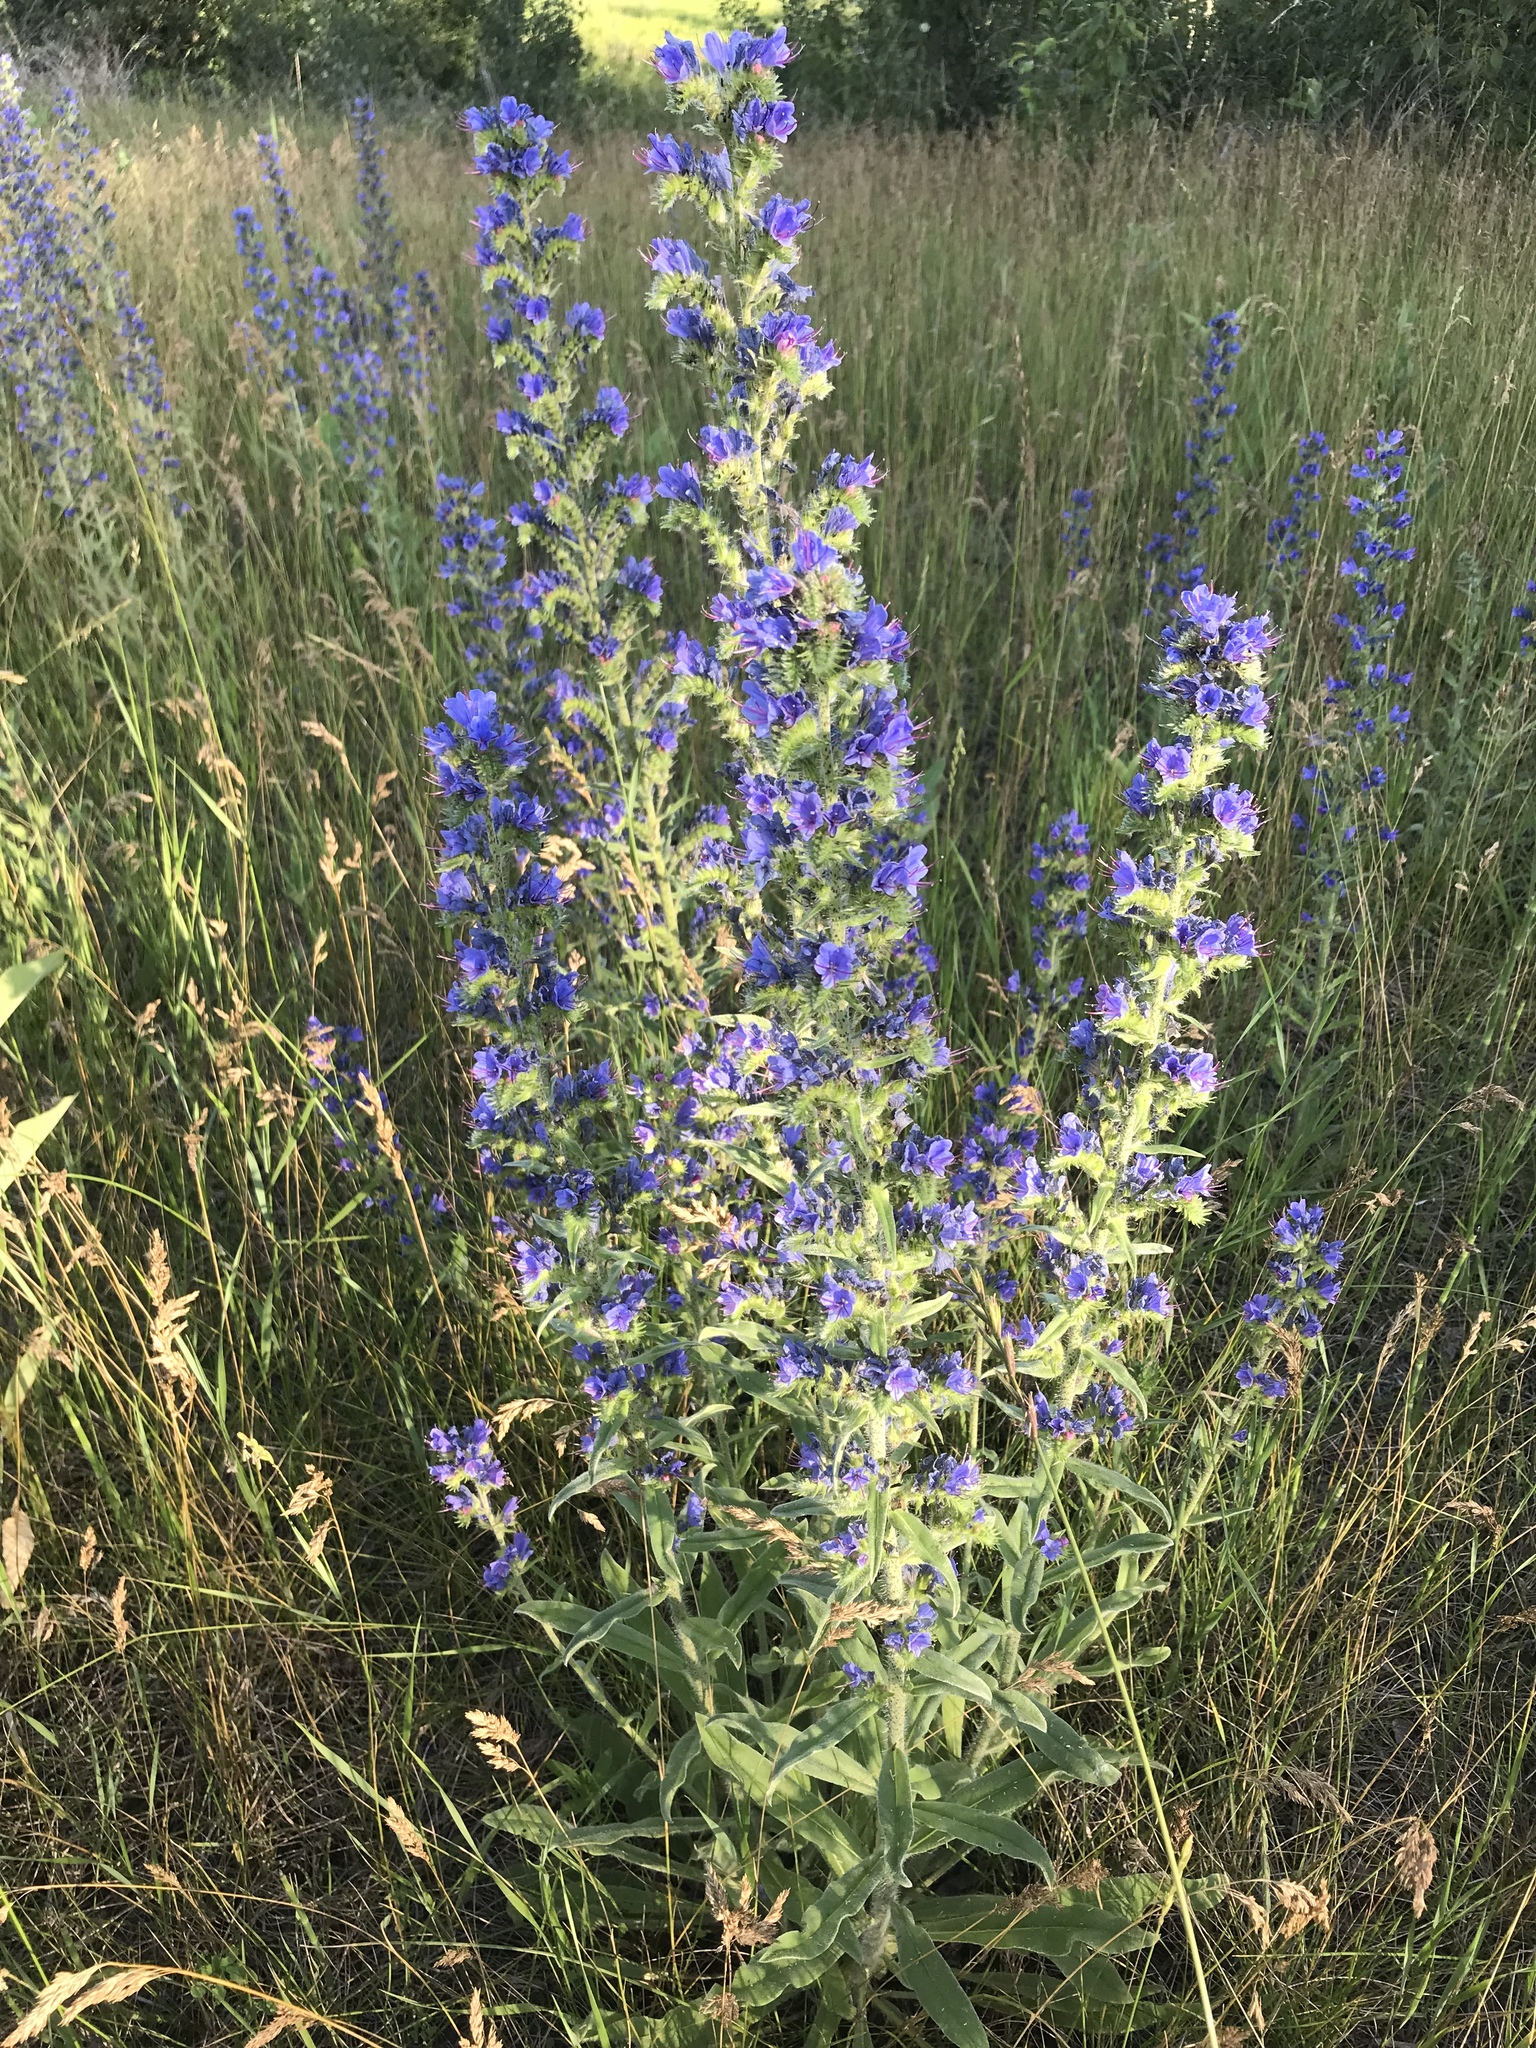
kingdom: Plantae
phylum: Tracheophyta
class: Magnoliopsida
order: Boraginales
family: Boraginaceae
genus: Echium
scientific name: Echium vulgare
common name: Common viper's bugloss
